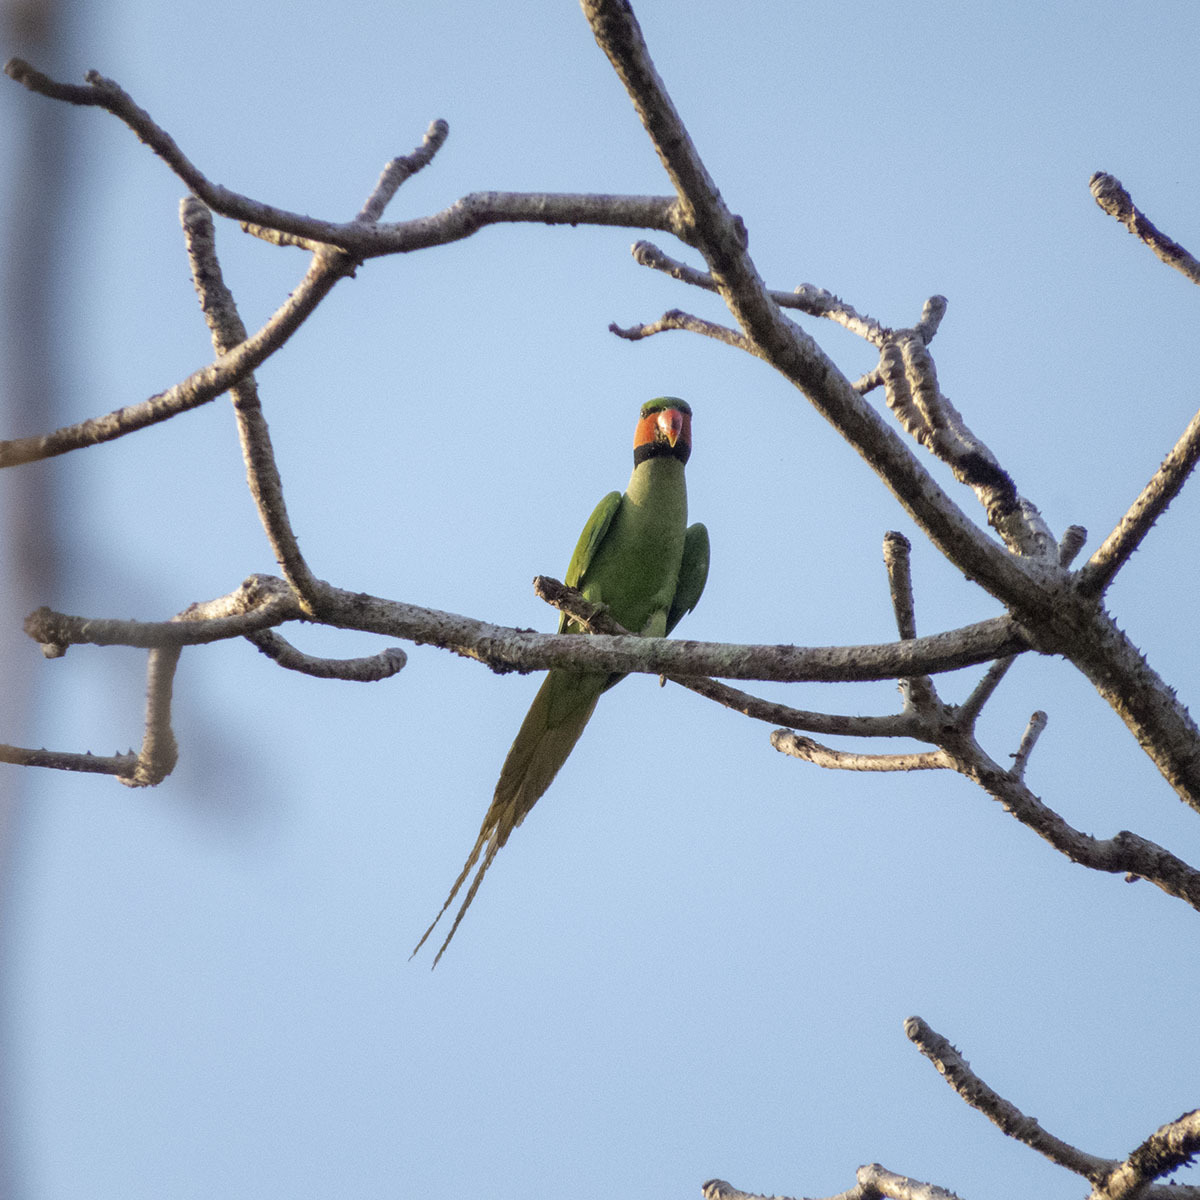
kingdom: Animalia
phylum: Chordata
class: Aves
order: Psittaciformes
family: Psittacidae
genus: Psittacula
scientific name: Psittacula longicauda
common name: Long-tailed parakeet
